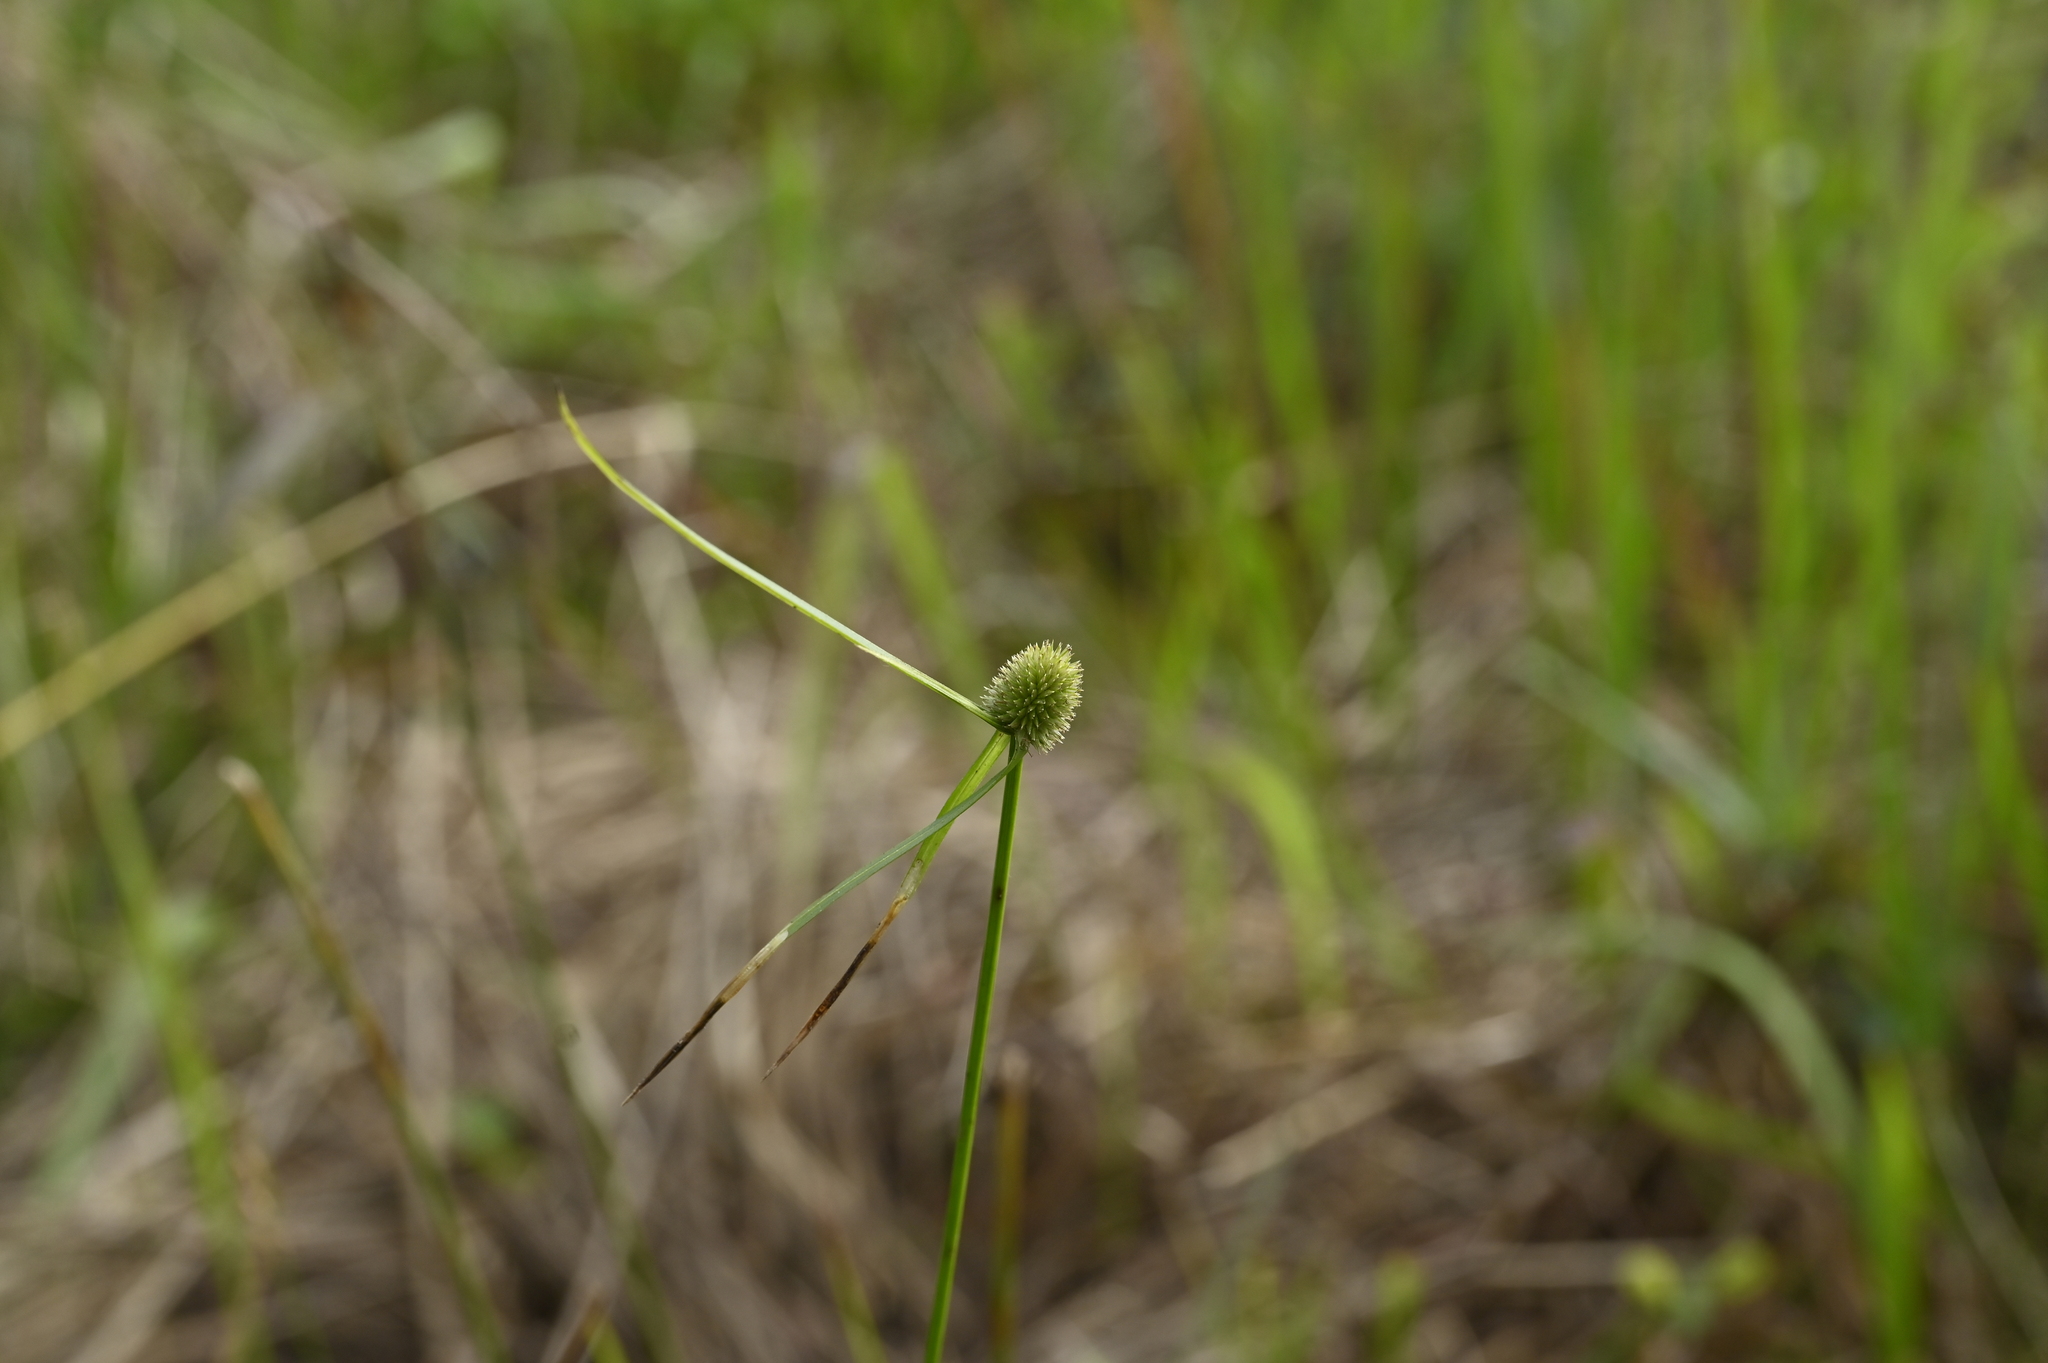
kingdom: Plantae
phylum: Tracheophyta
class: Liliopsida
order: Poales
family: Cyperaceae
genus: Cyperus
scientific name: Cyperus brevifolius
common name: Globe kyllinga
